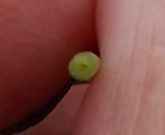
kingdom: Plantae
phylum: Tracheophyta
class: Magnoliopsida
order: Fabales
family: Fabaceae
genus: Lotus
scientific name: Lotus pedunculatus
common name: Greater birdsfoot-trefoil
